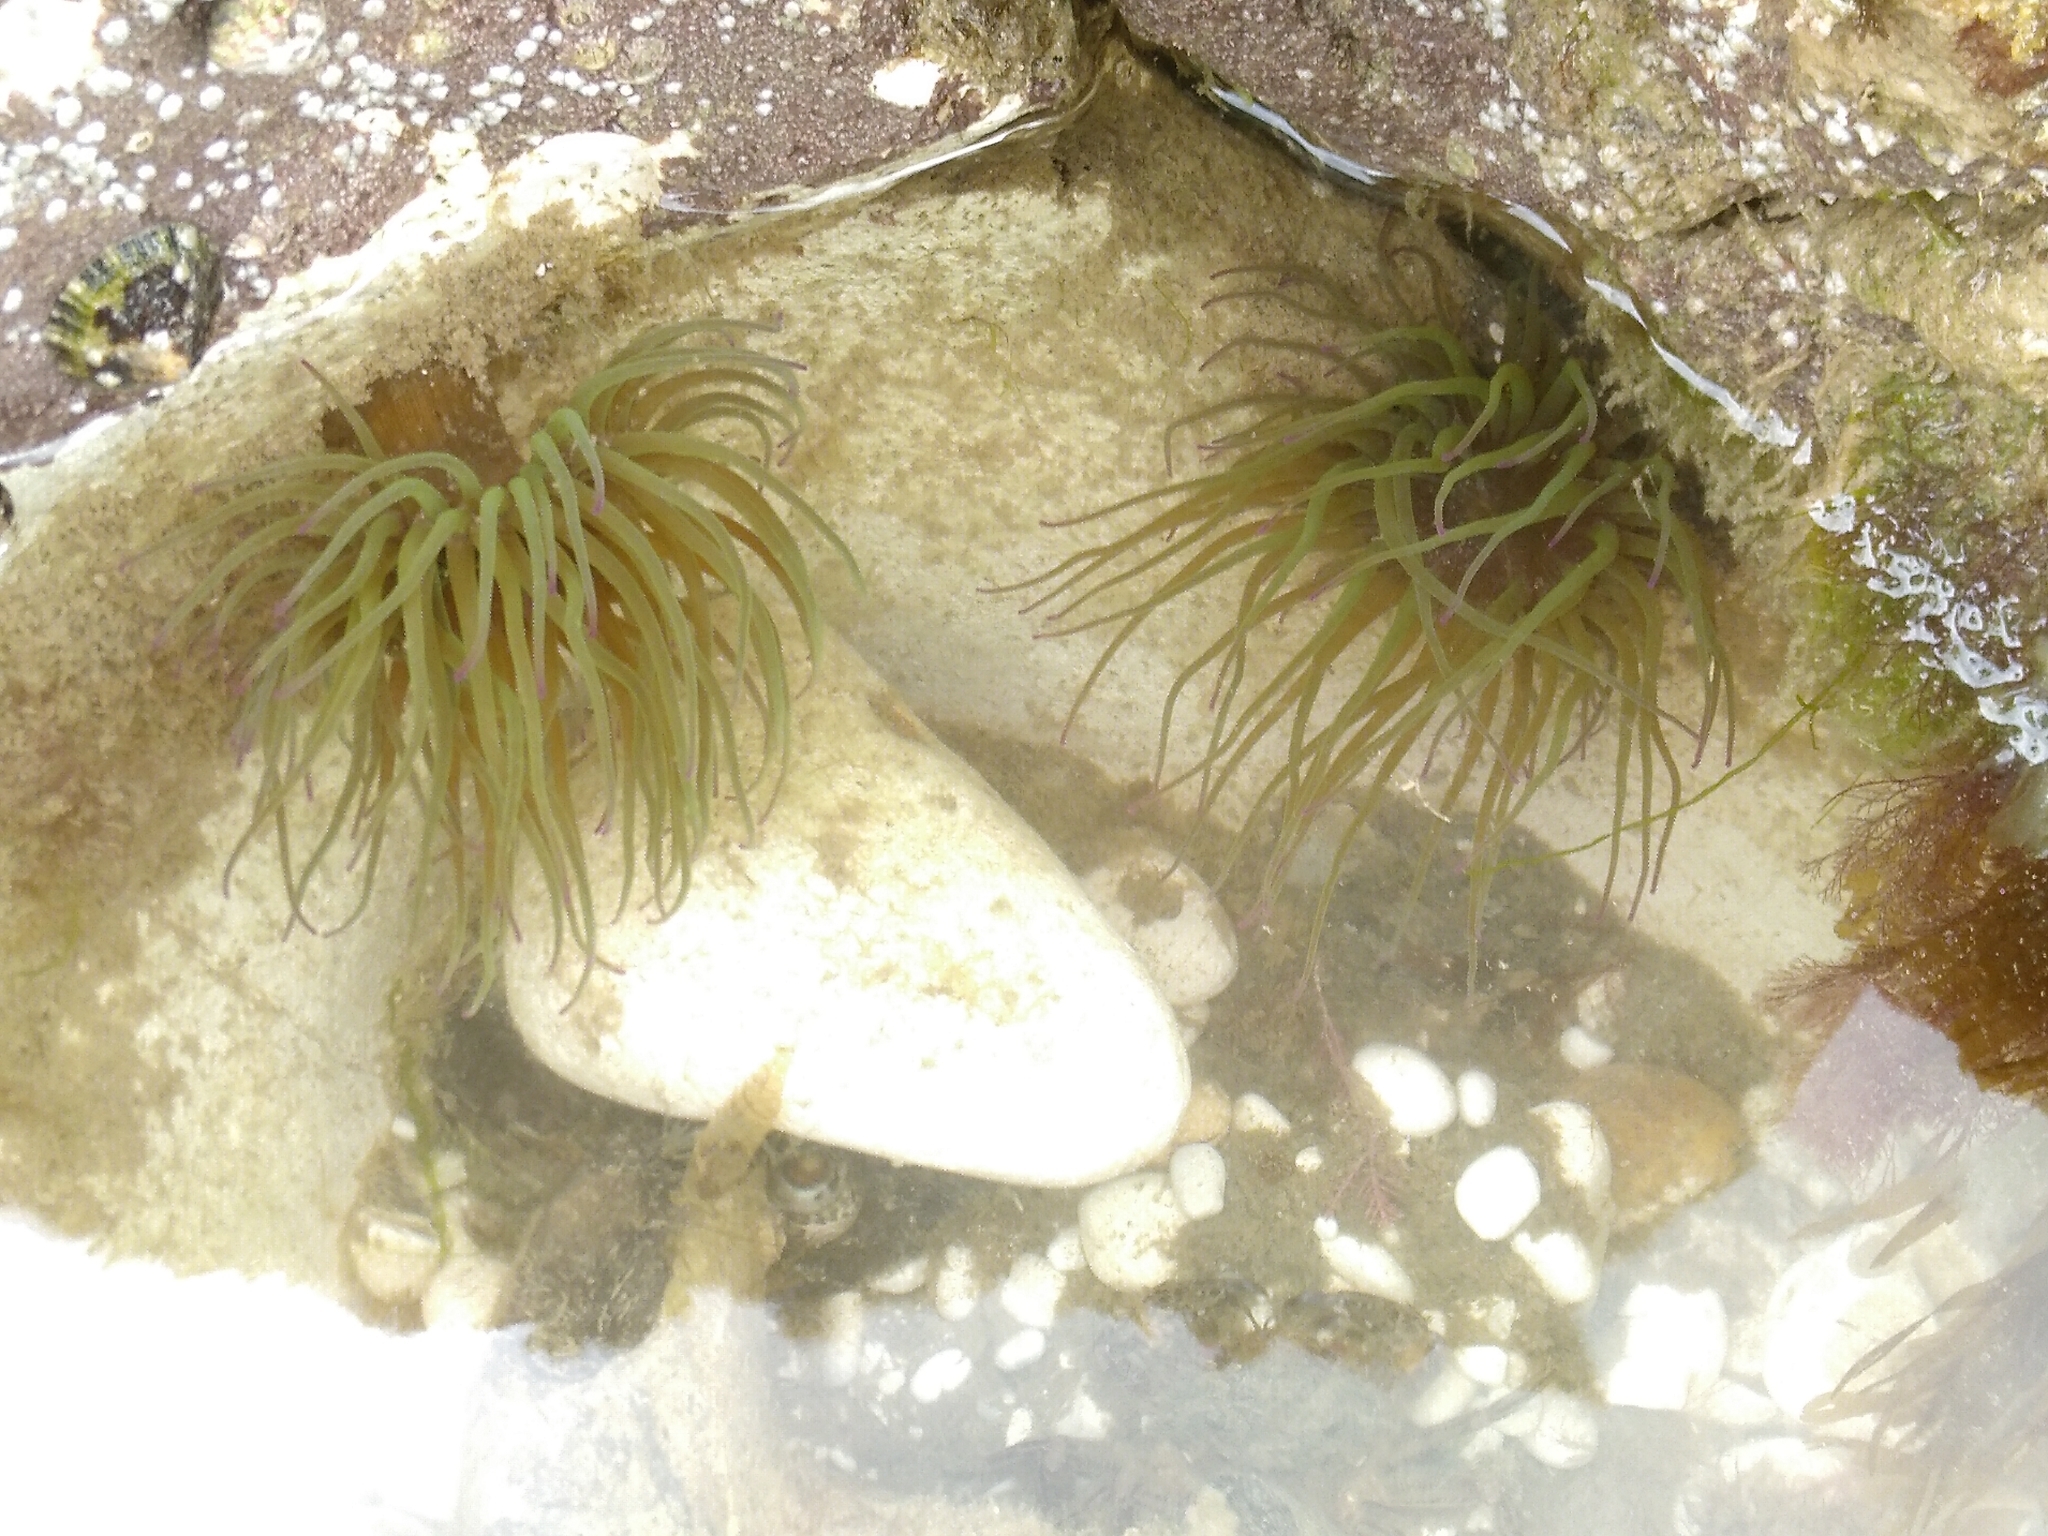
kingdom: Animalia
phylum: Cnidaria
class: Anthozoa
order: Actiniaria
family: Actiniidae
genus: Anemonia
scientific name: Anemonia viridis
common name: Snakelocks anemone
